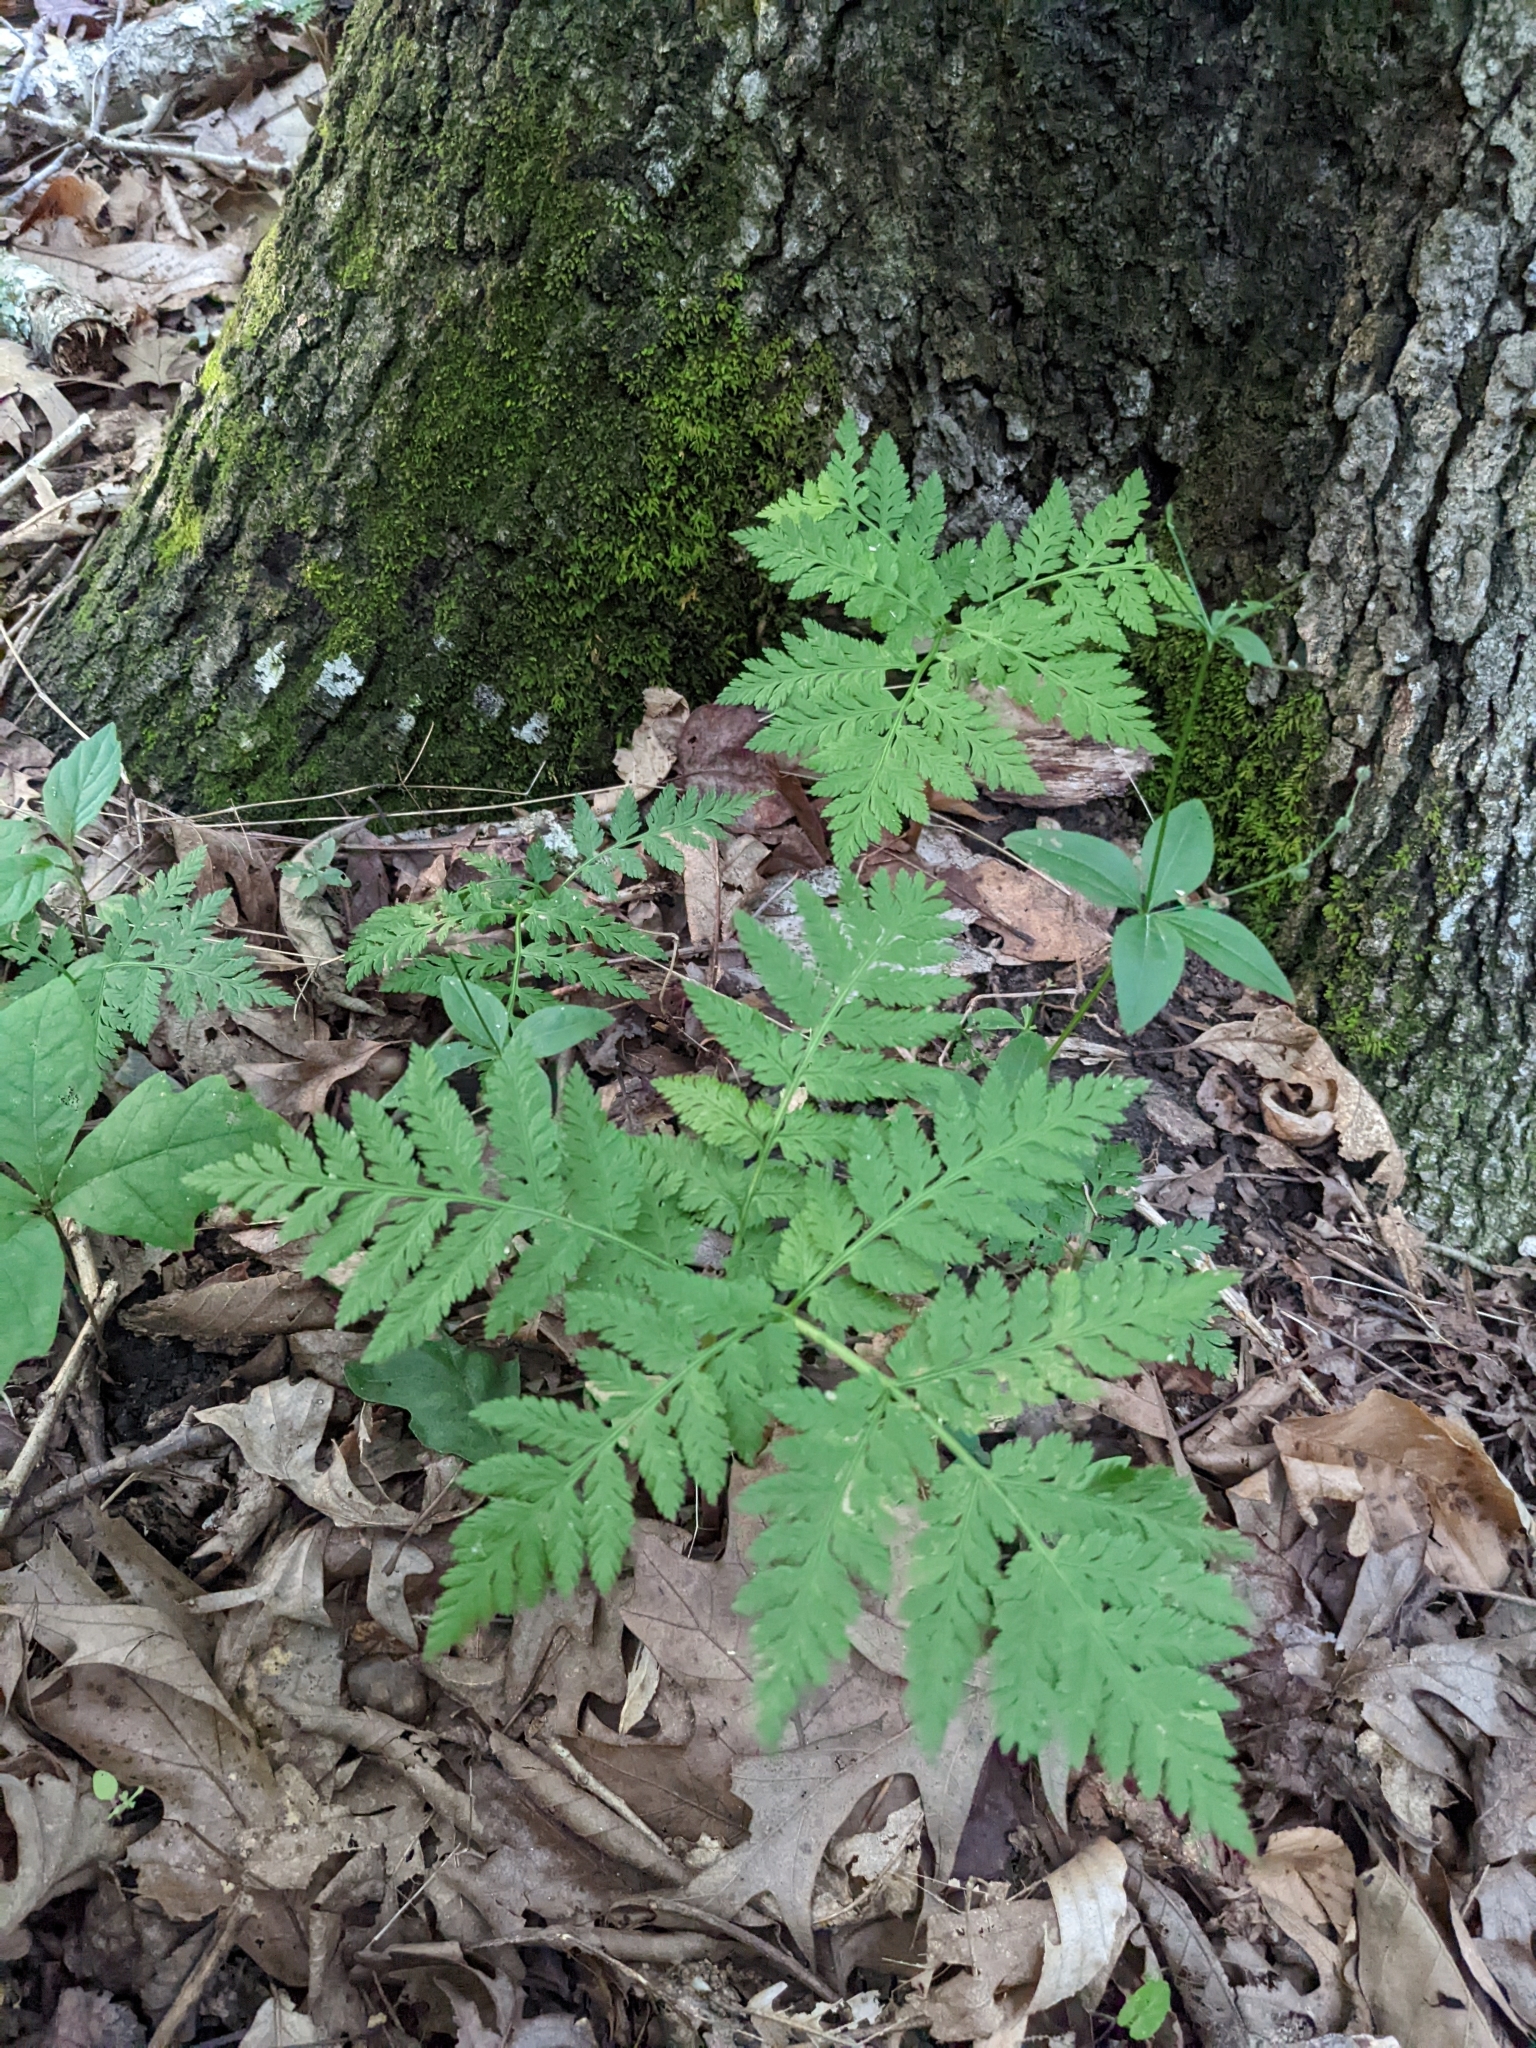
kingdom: Plantae
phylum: Tracheophyta
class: Polypodiopsida
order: Ophioglossales
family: Ophioglossaceae
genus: Botrypus
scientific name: Botrypus virginianus
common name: Common grapefern
